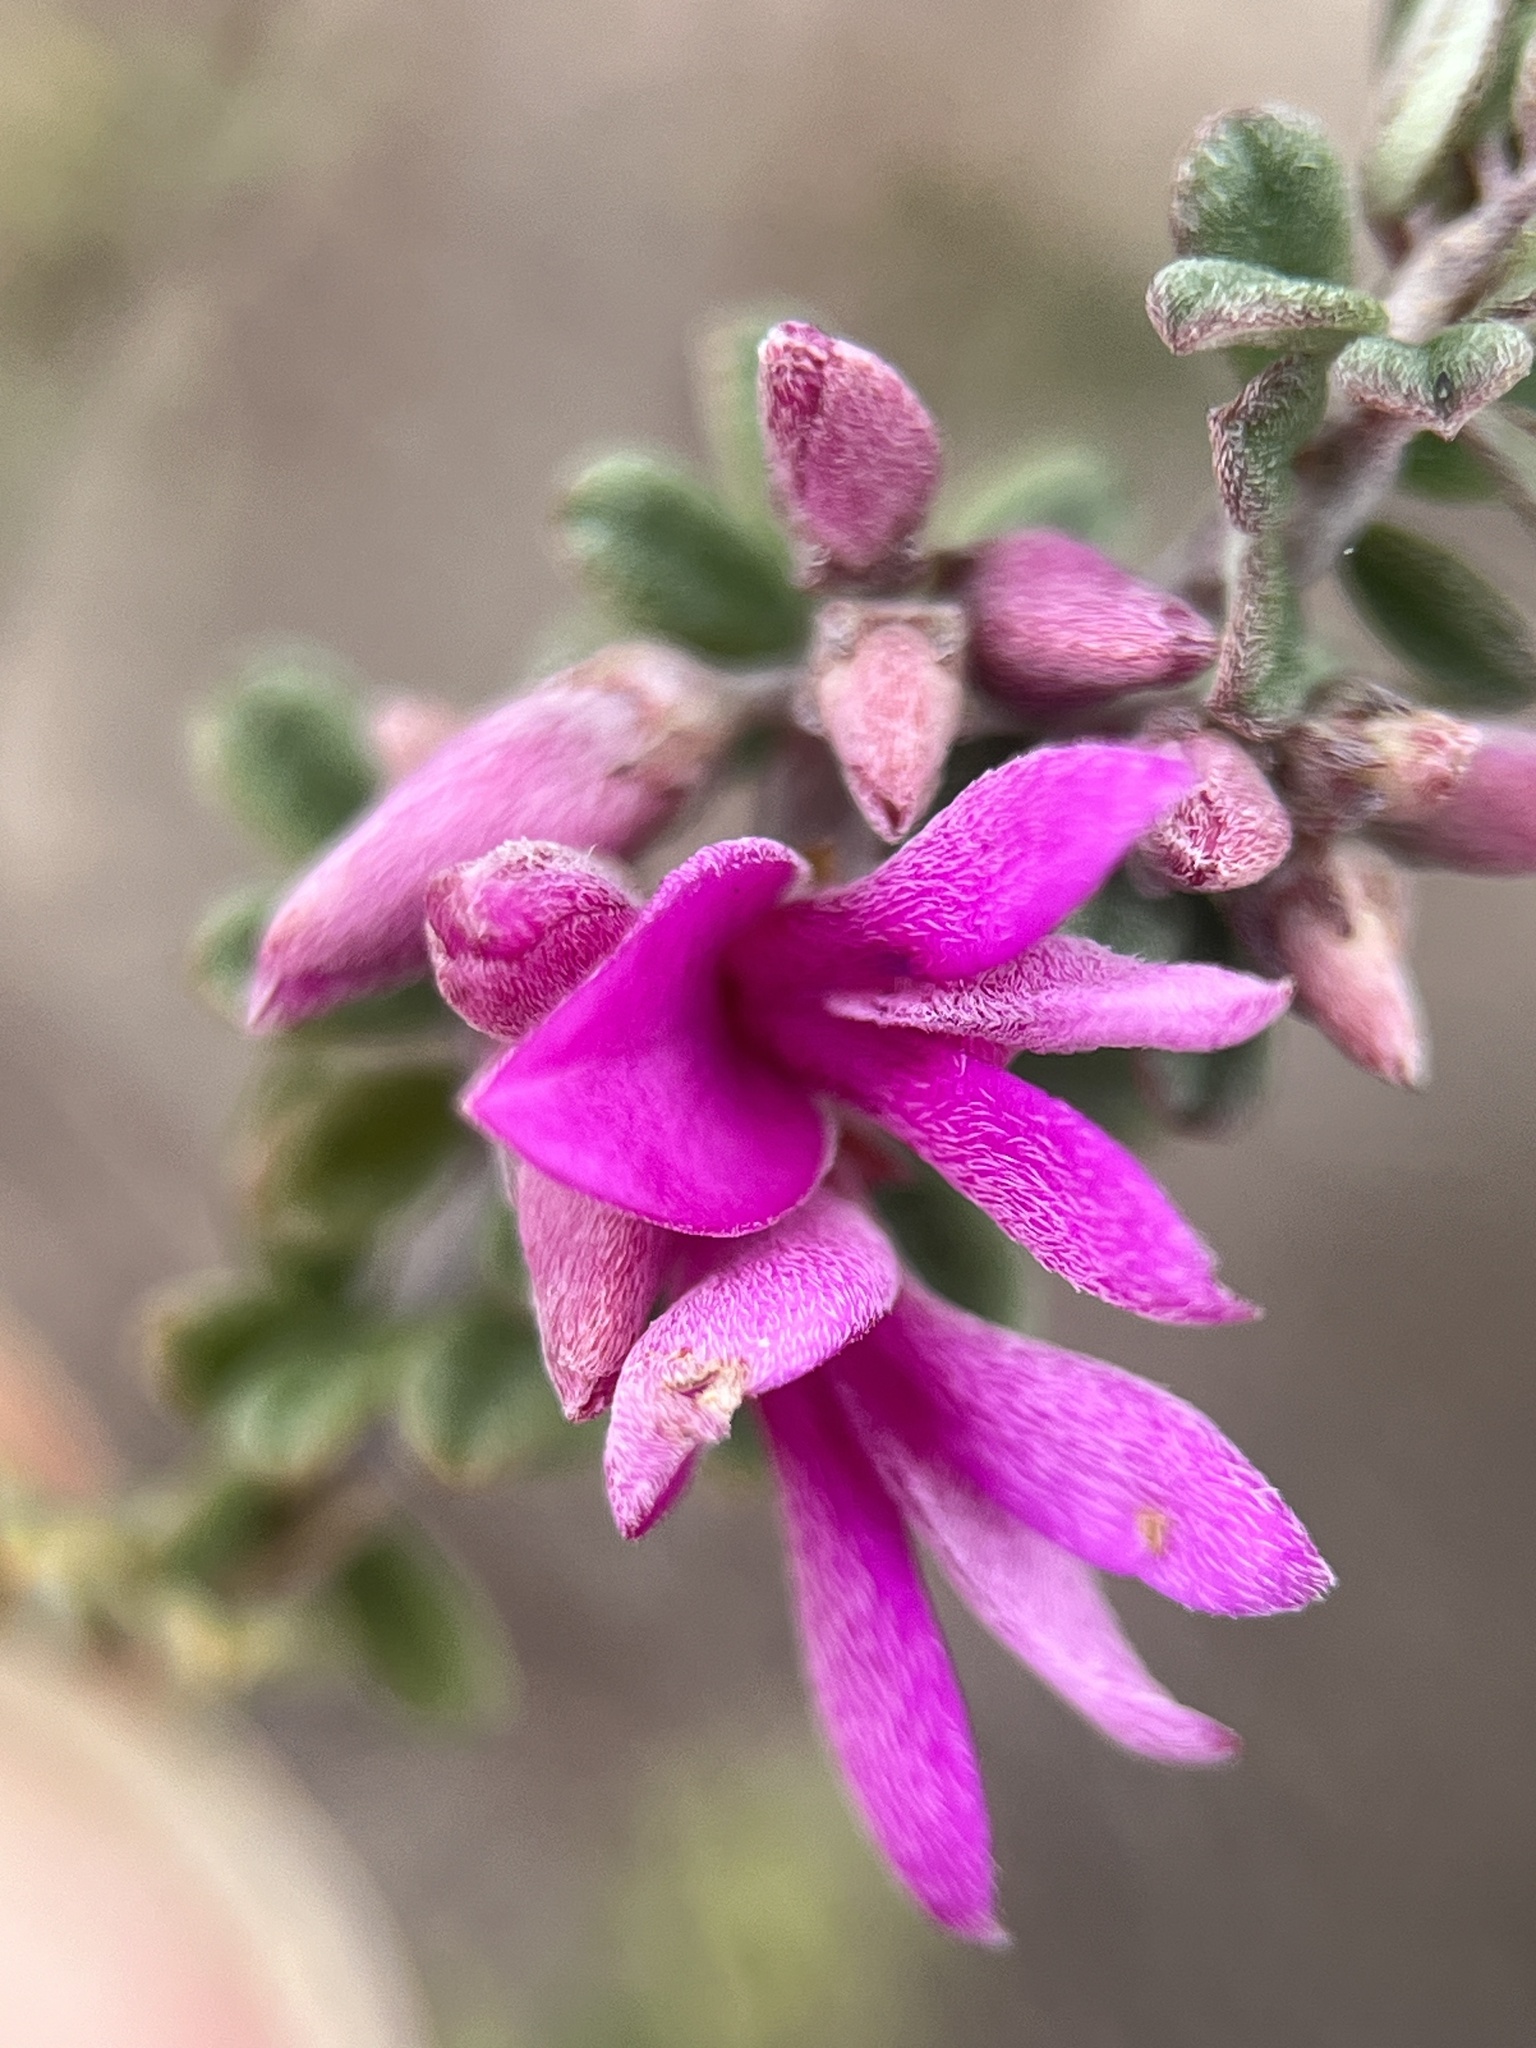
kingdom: Plantae
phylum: Tracheophyta
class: Magnoliopsida
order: Fabales
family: Fabaceae
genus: Indigofera
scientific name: Indigofera
